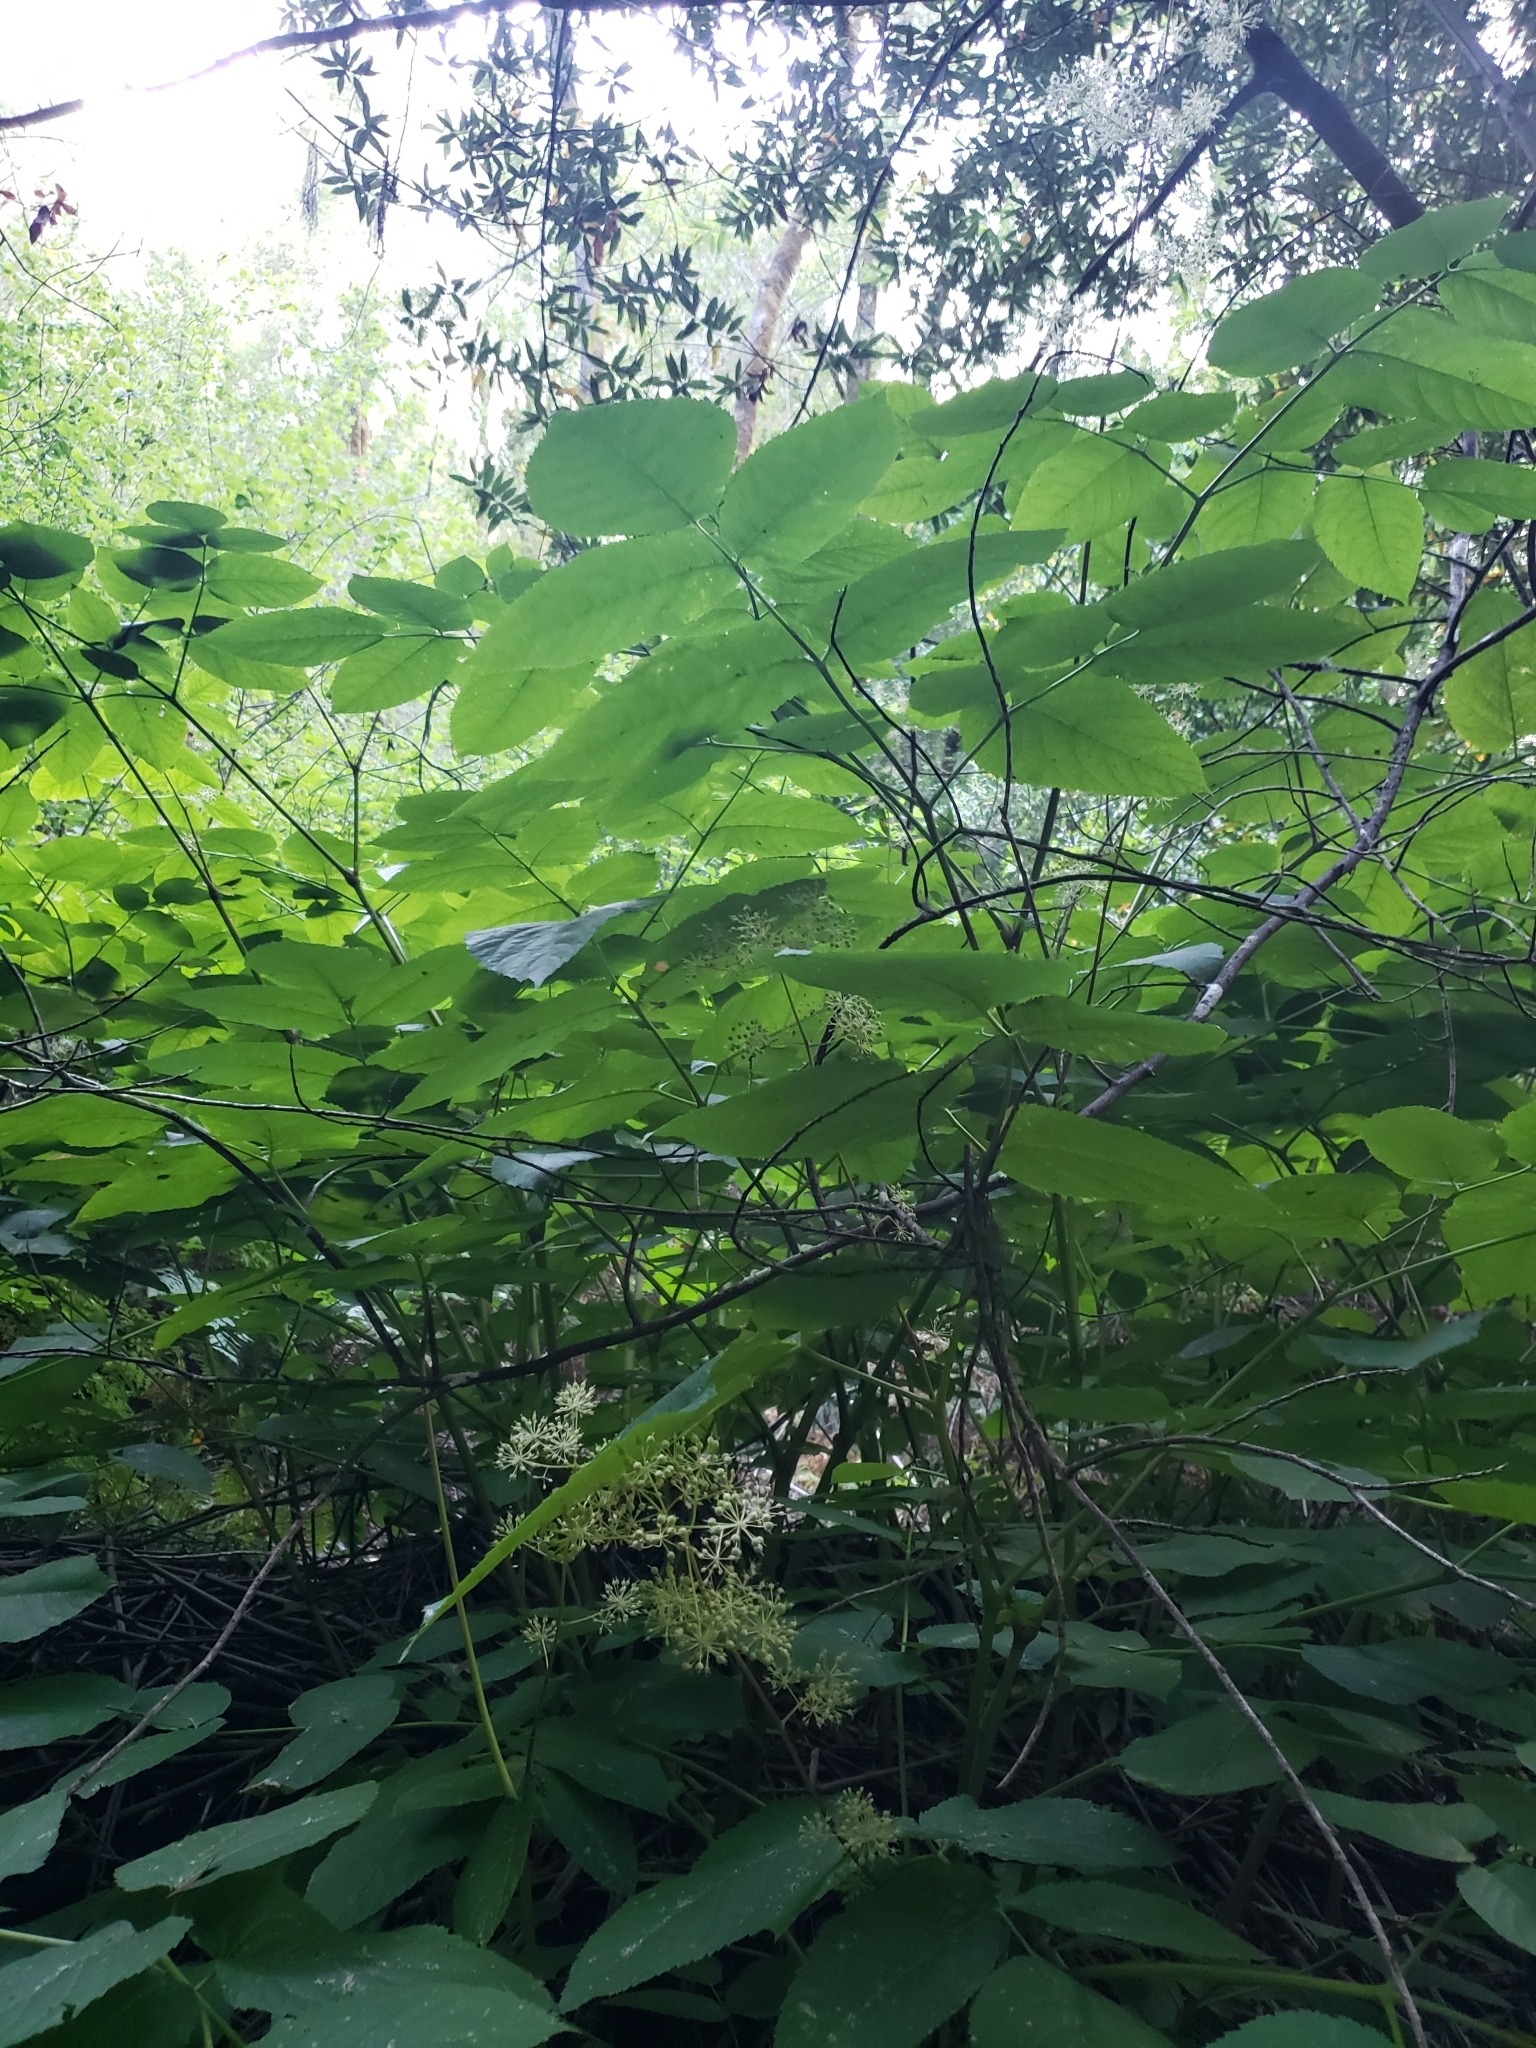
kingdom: Plantae
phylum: Tracheophyta
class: Magnoliopsida
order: Apiales
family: Araliaceae
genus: Aralia
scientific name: Aralia californica
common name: California-ginseng
